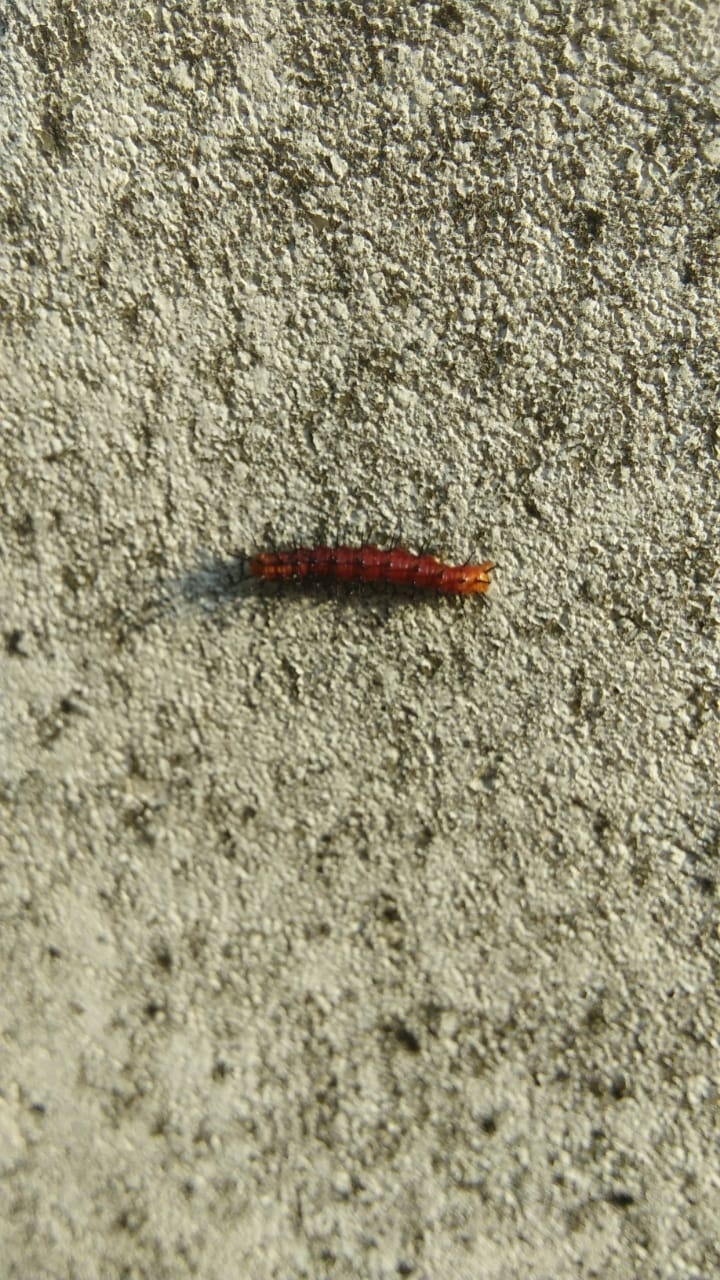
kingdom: Animalia
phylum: Arthropoda
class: Insecta
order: Lepidoptera
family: Nymphalidae
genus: Acraea
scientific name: Acraea terpsicore
